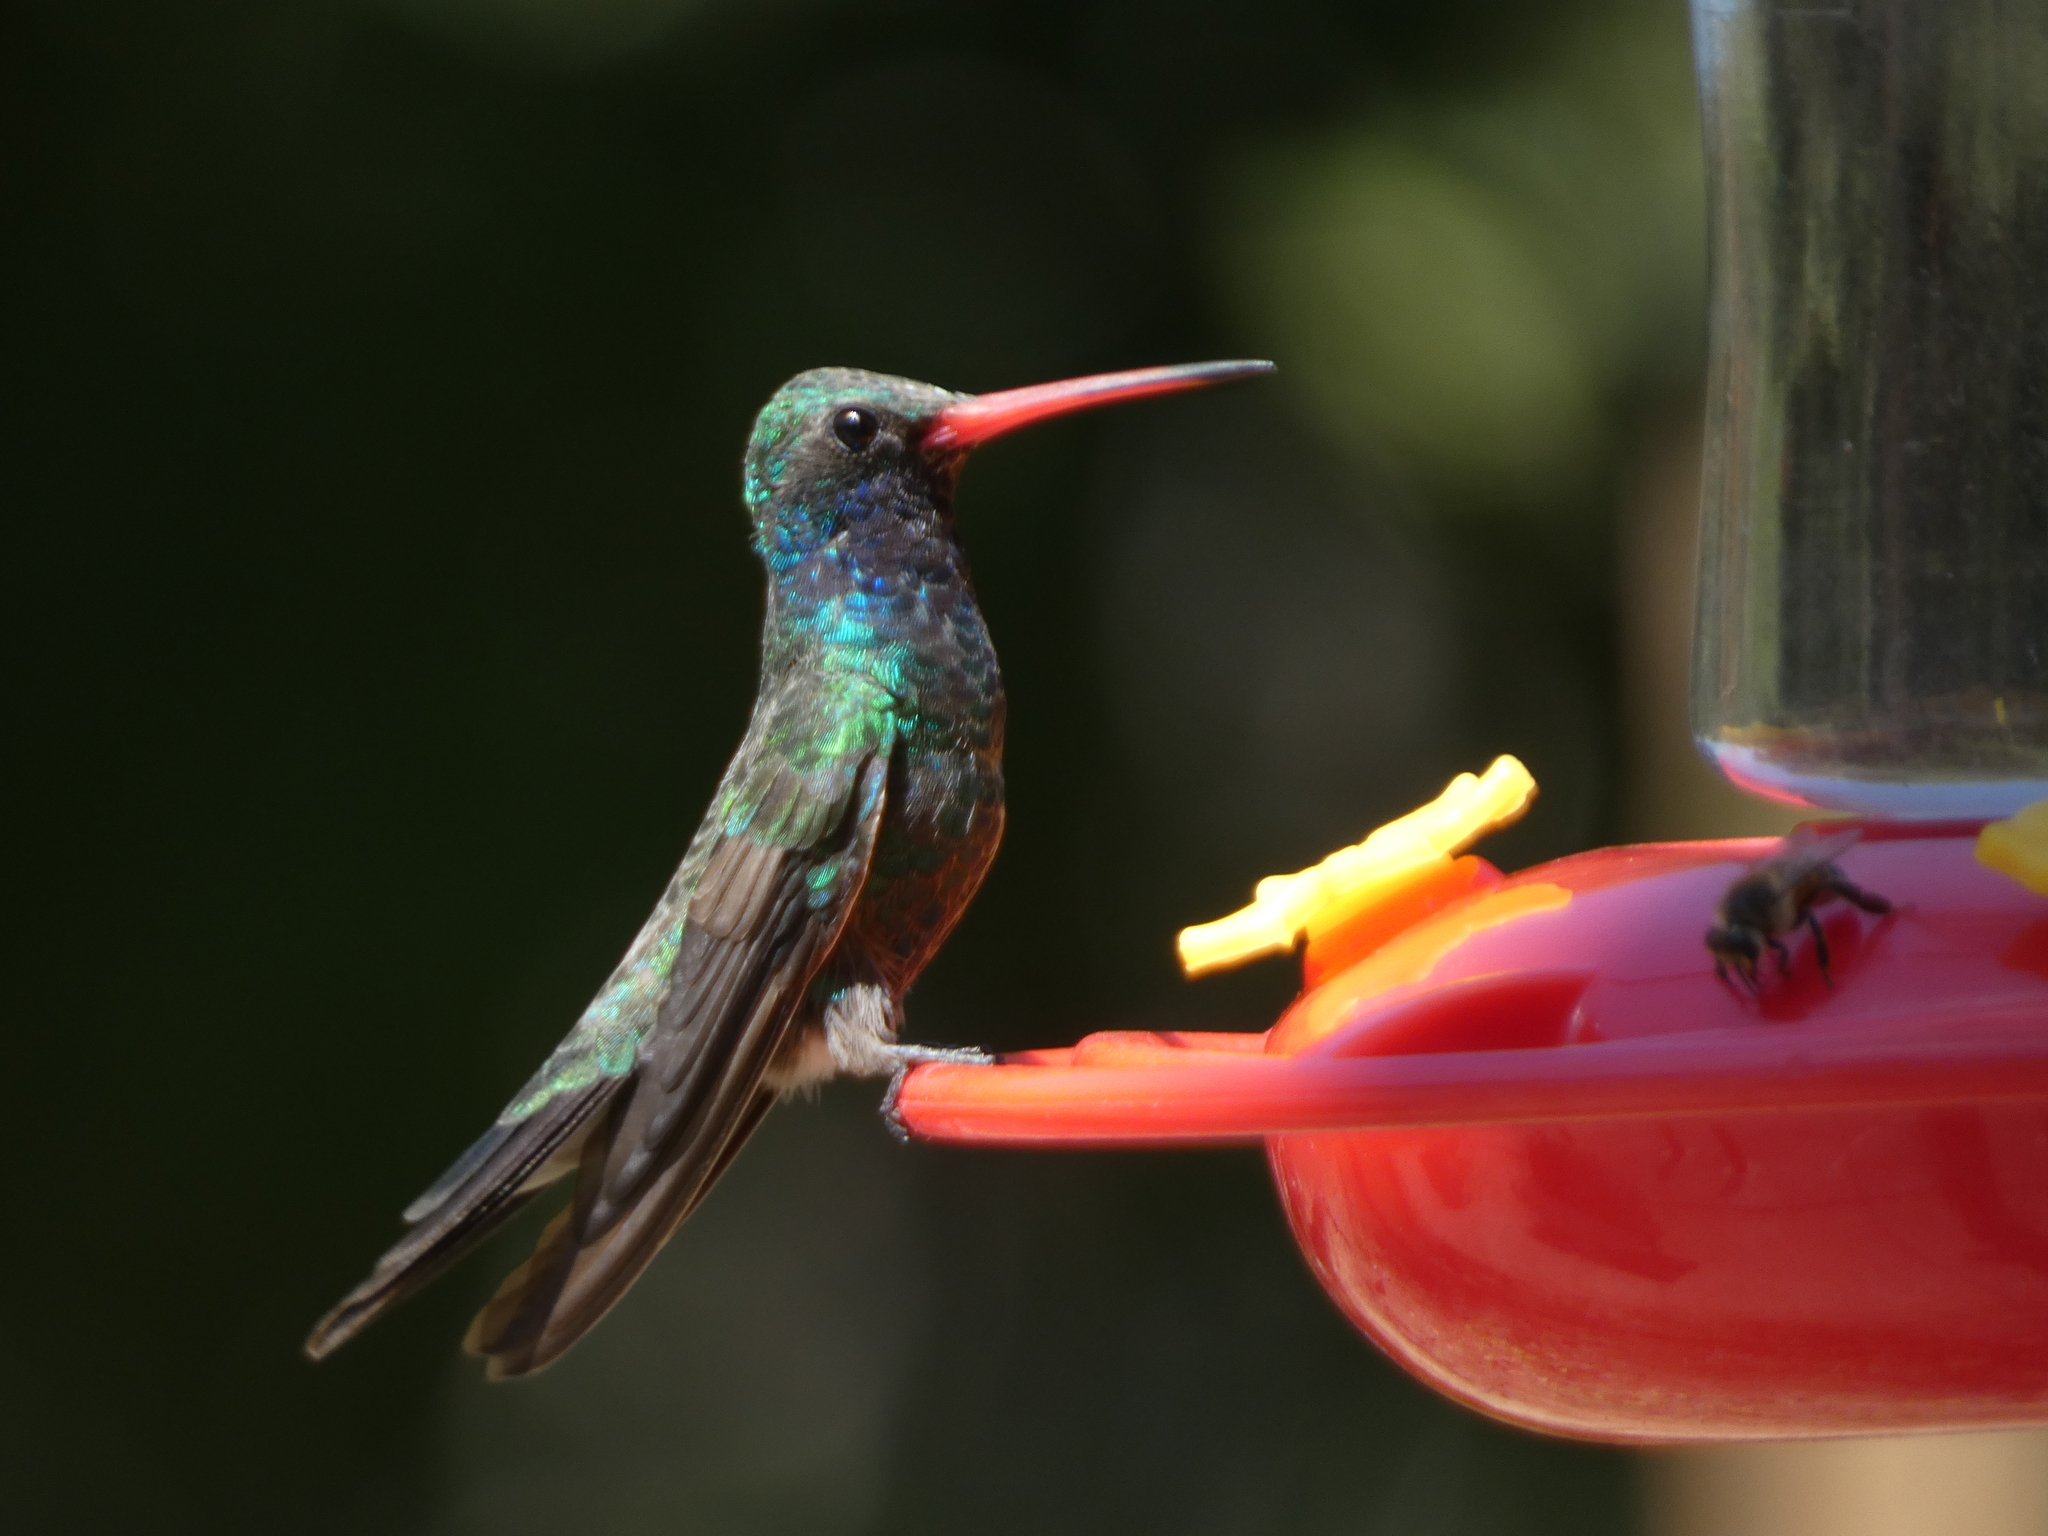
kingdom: Animalia
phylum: Chordata
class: Aves
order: Apodiformes
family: Trochilidae
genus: Cynanthus
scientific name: Cynanthus latirostris
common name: Broad-billed hummingbird
